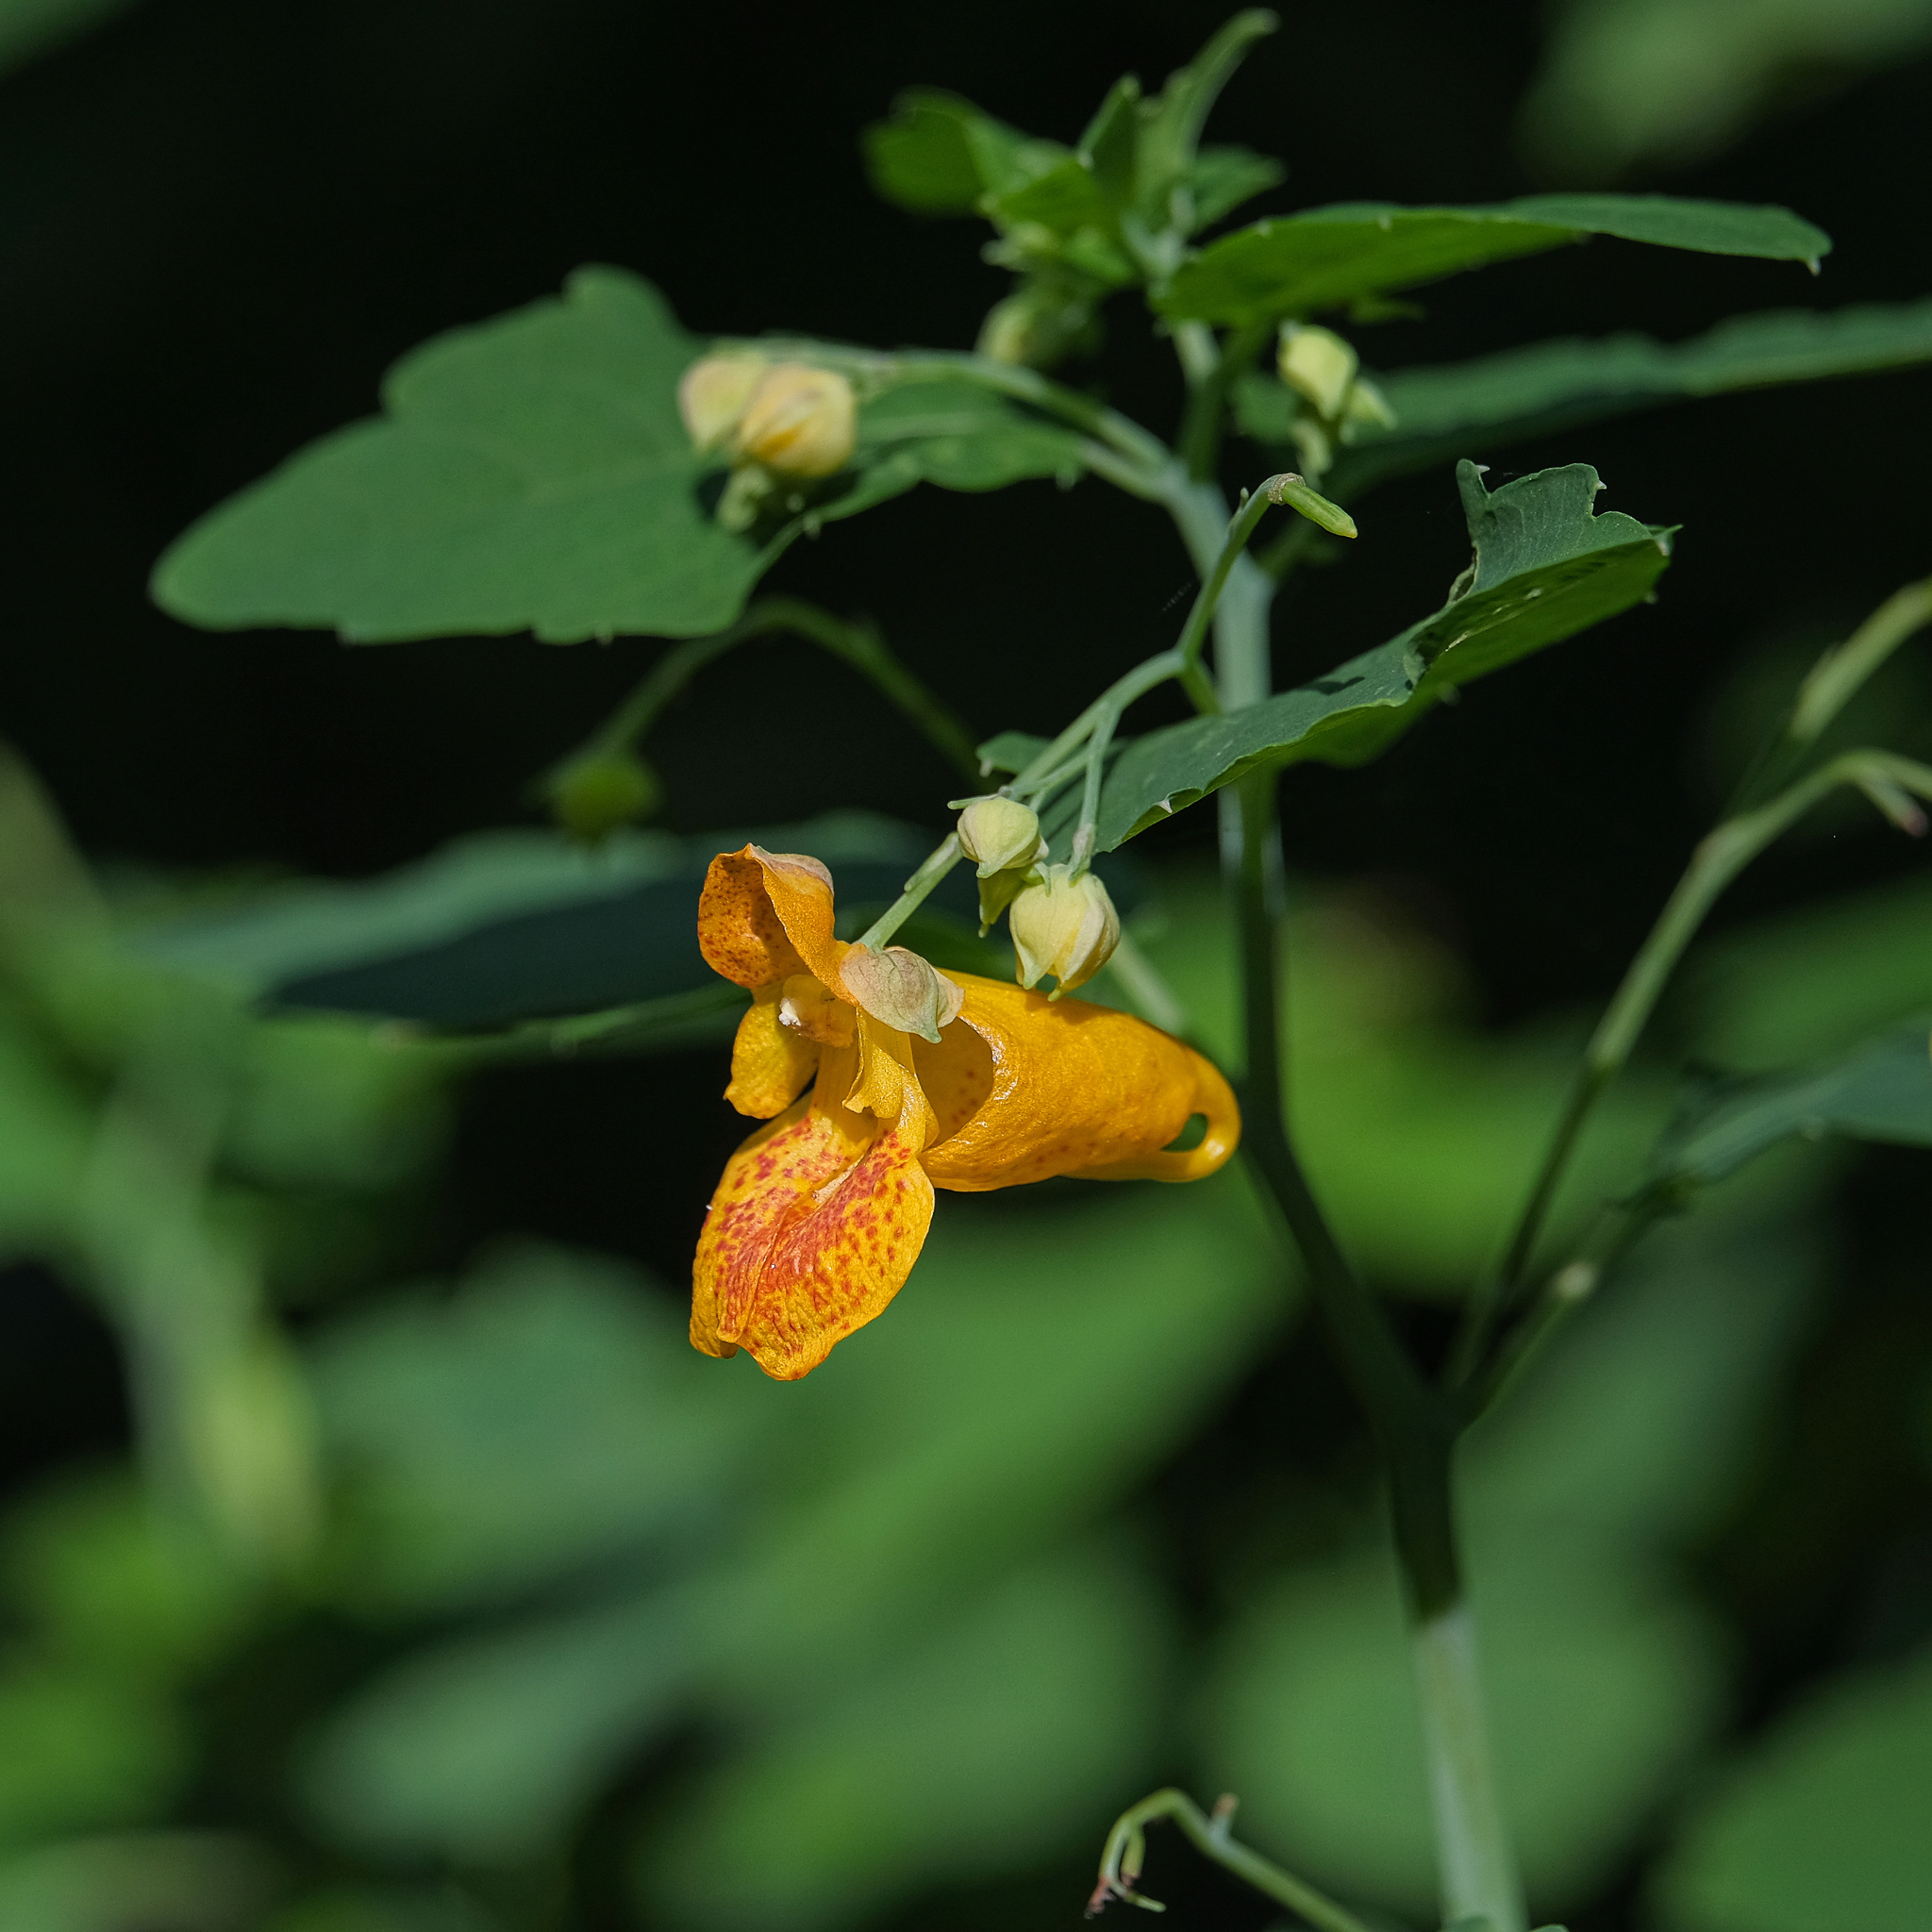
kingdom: Plantae
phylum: Tracheophyta
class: Magnoliopsida
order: Ericales
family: Balsaminaceae
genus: Impatiens
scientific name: Impatiens capensis
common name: Orange balsam
